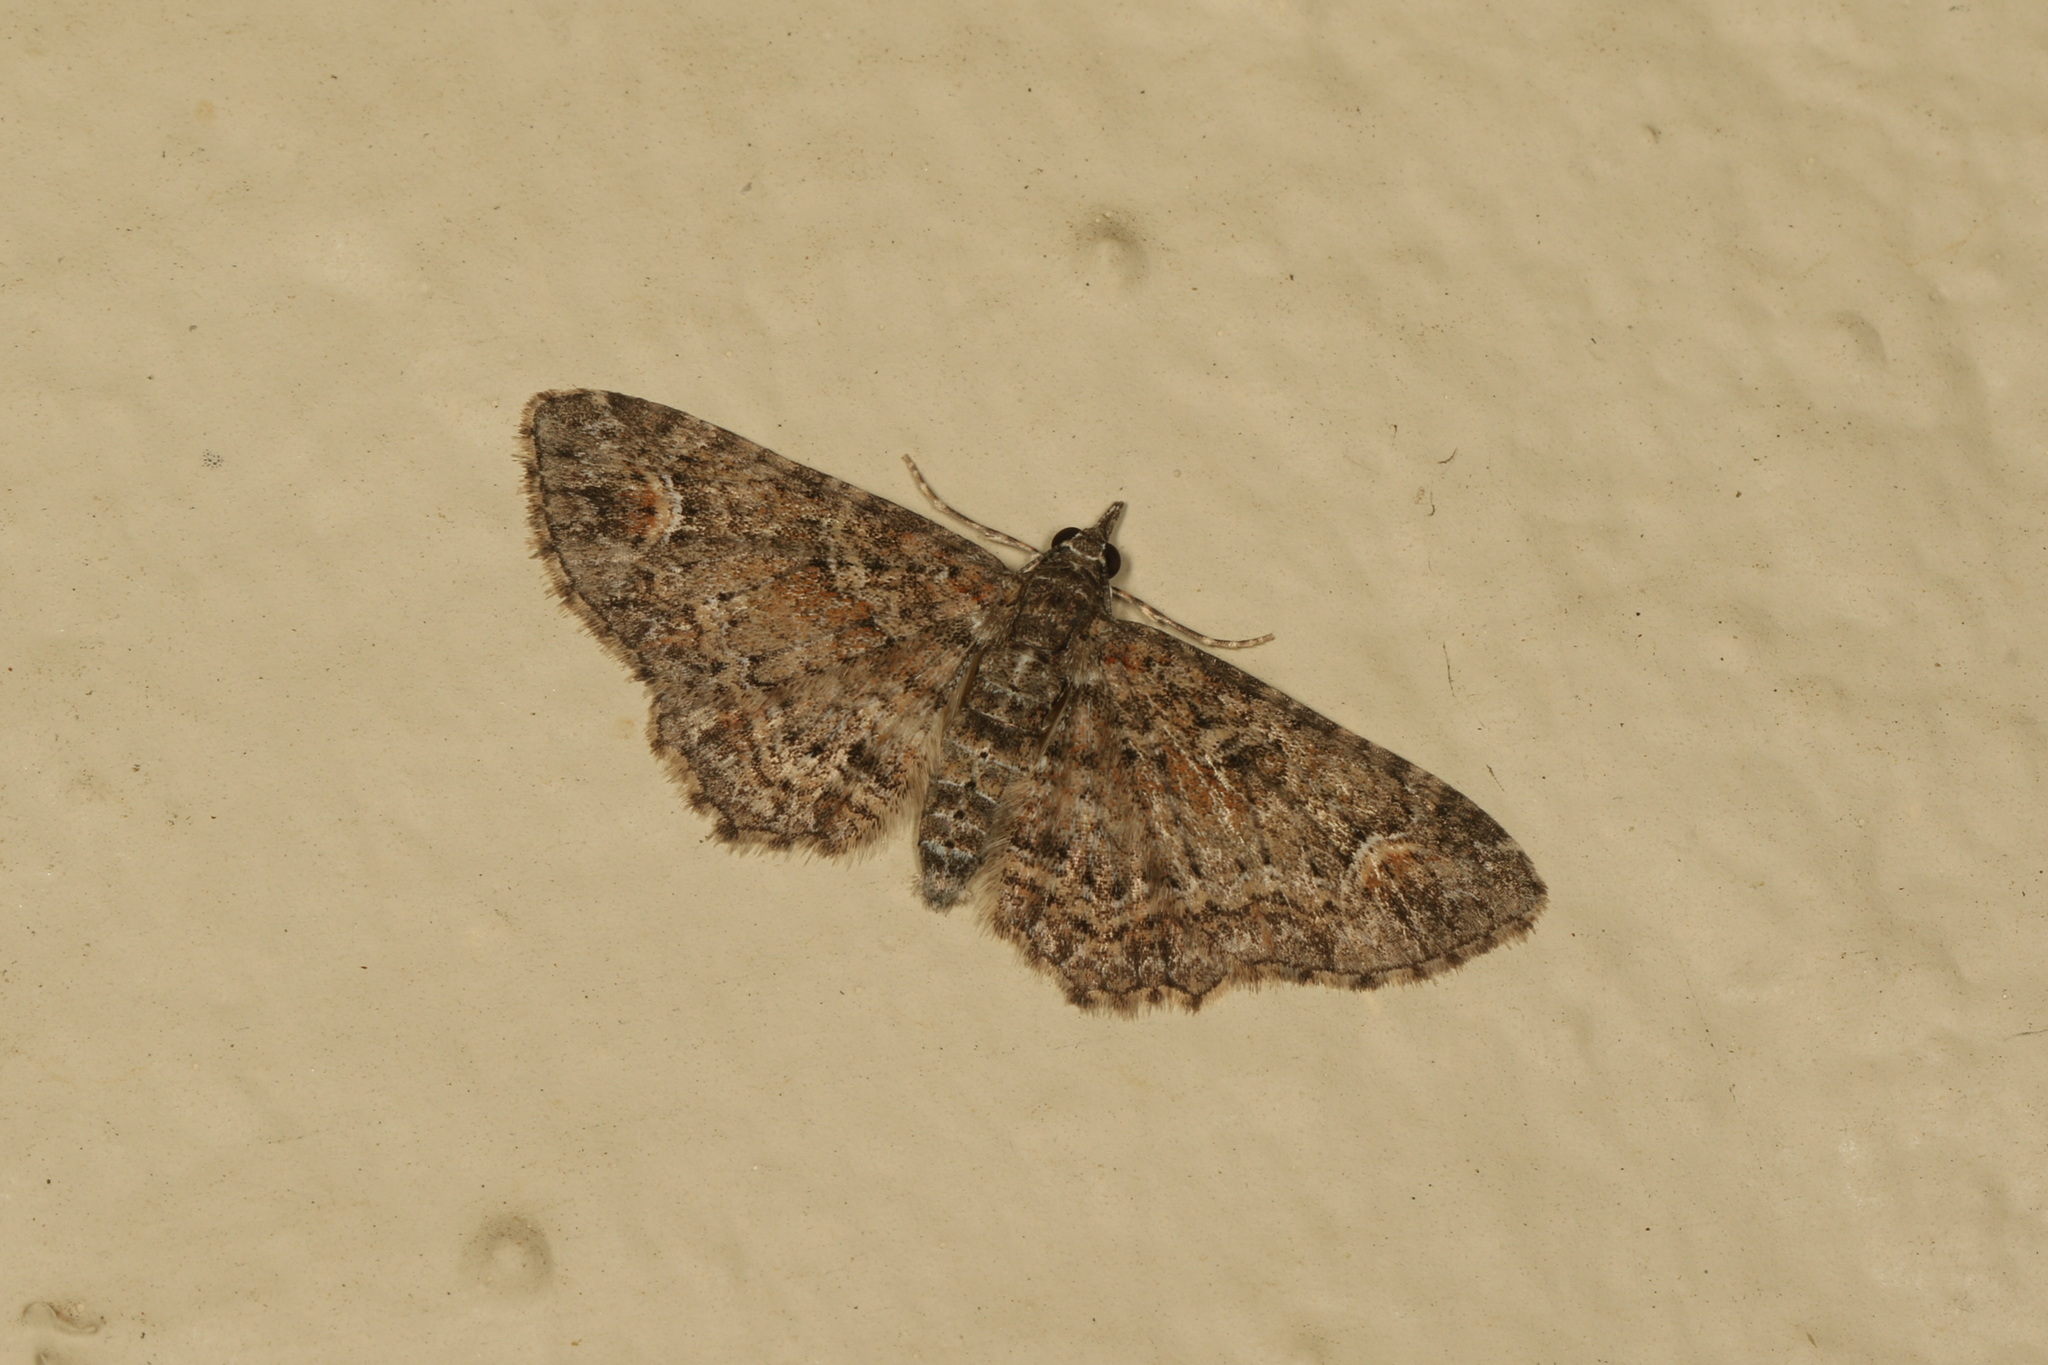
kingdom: Animalia
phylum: Arthropoda
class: Insecta
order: Lepidoptera
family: Geometridae
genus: Pasiphilodes
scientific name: Pasiphilodes testulata
